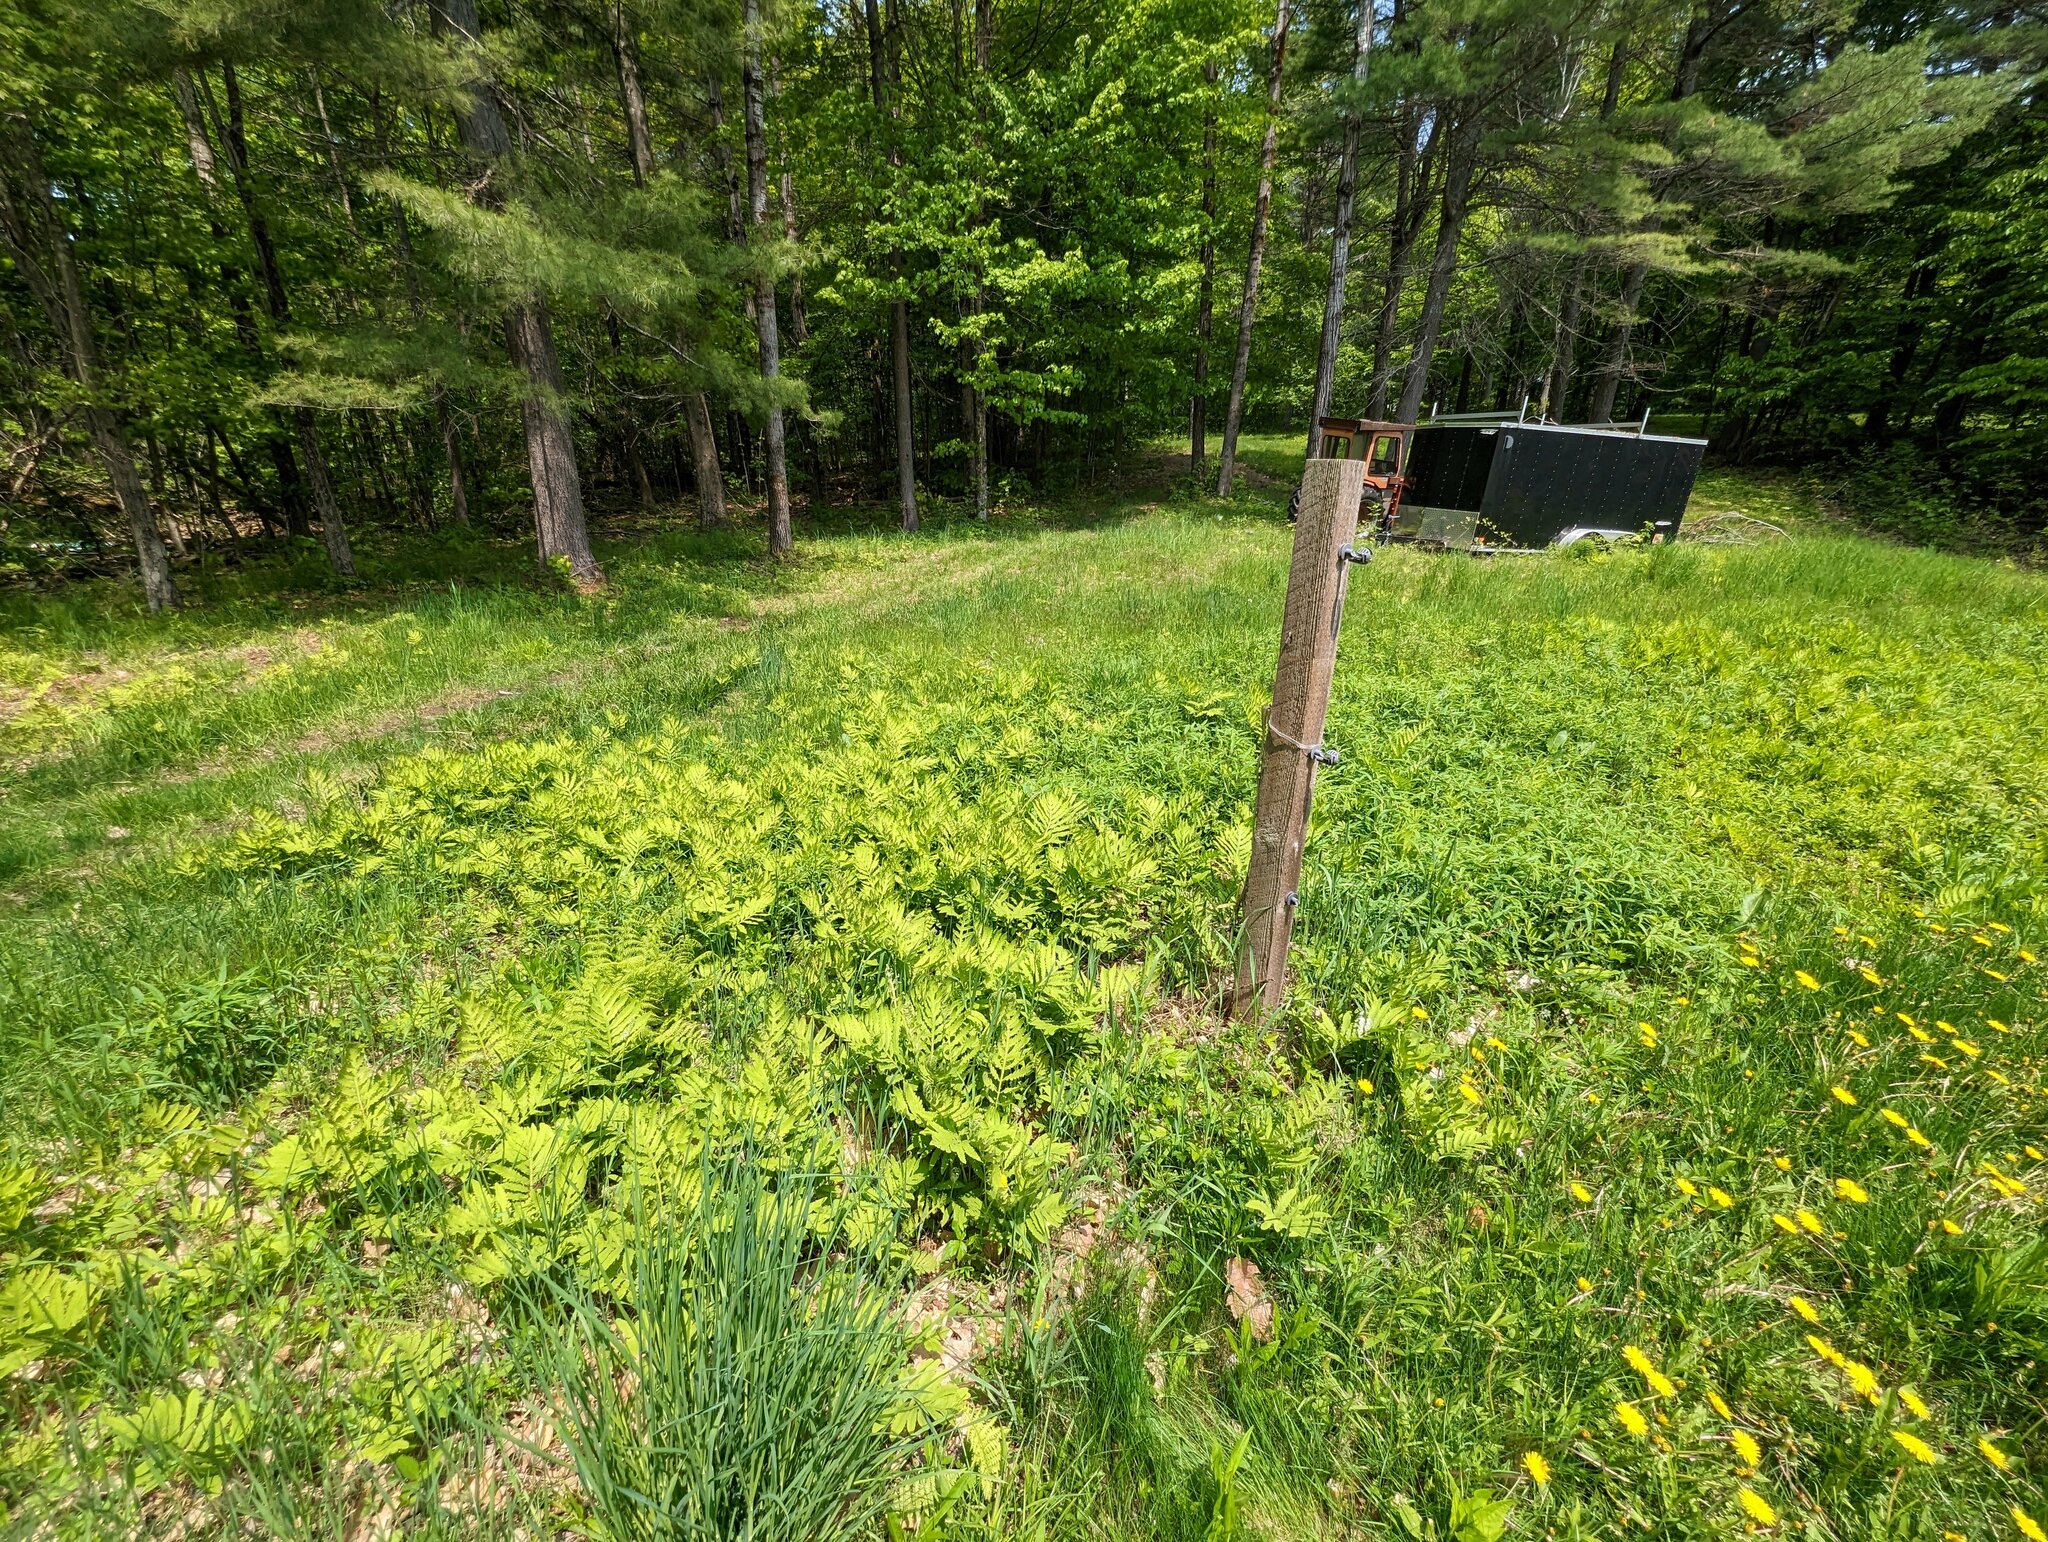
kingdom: Plantae
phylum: Tracheophyta
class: Polypodiopsida
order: Polypodiales
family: Onocleaceae
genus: Onoclea
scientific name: Onoclea sensibilis
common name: Sensitive fern
